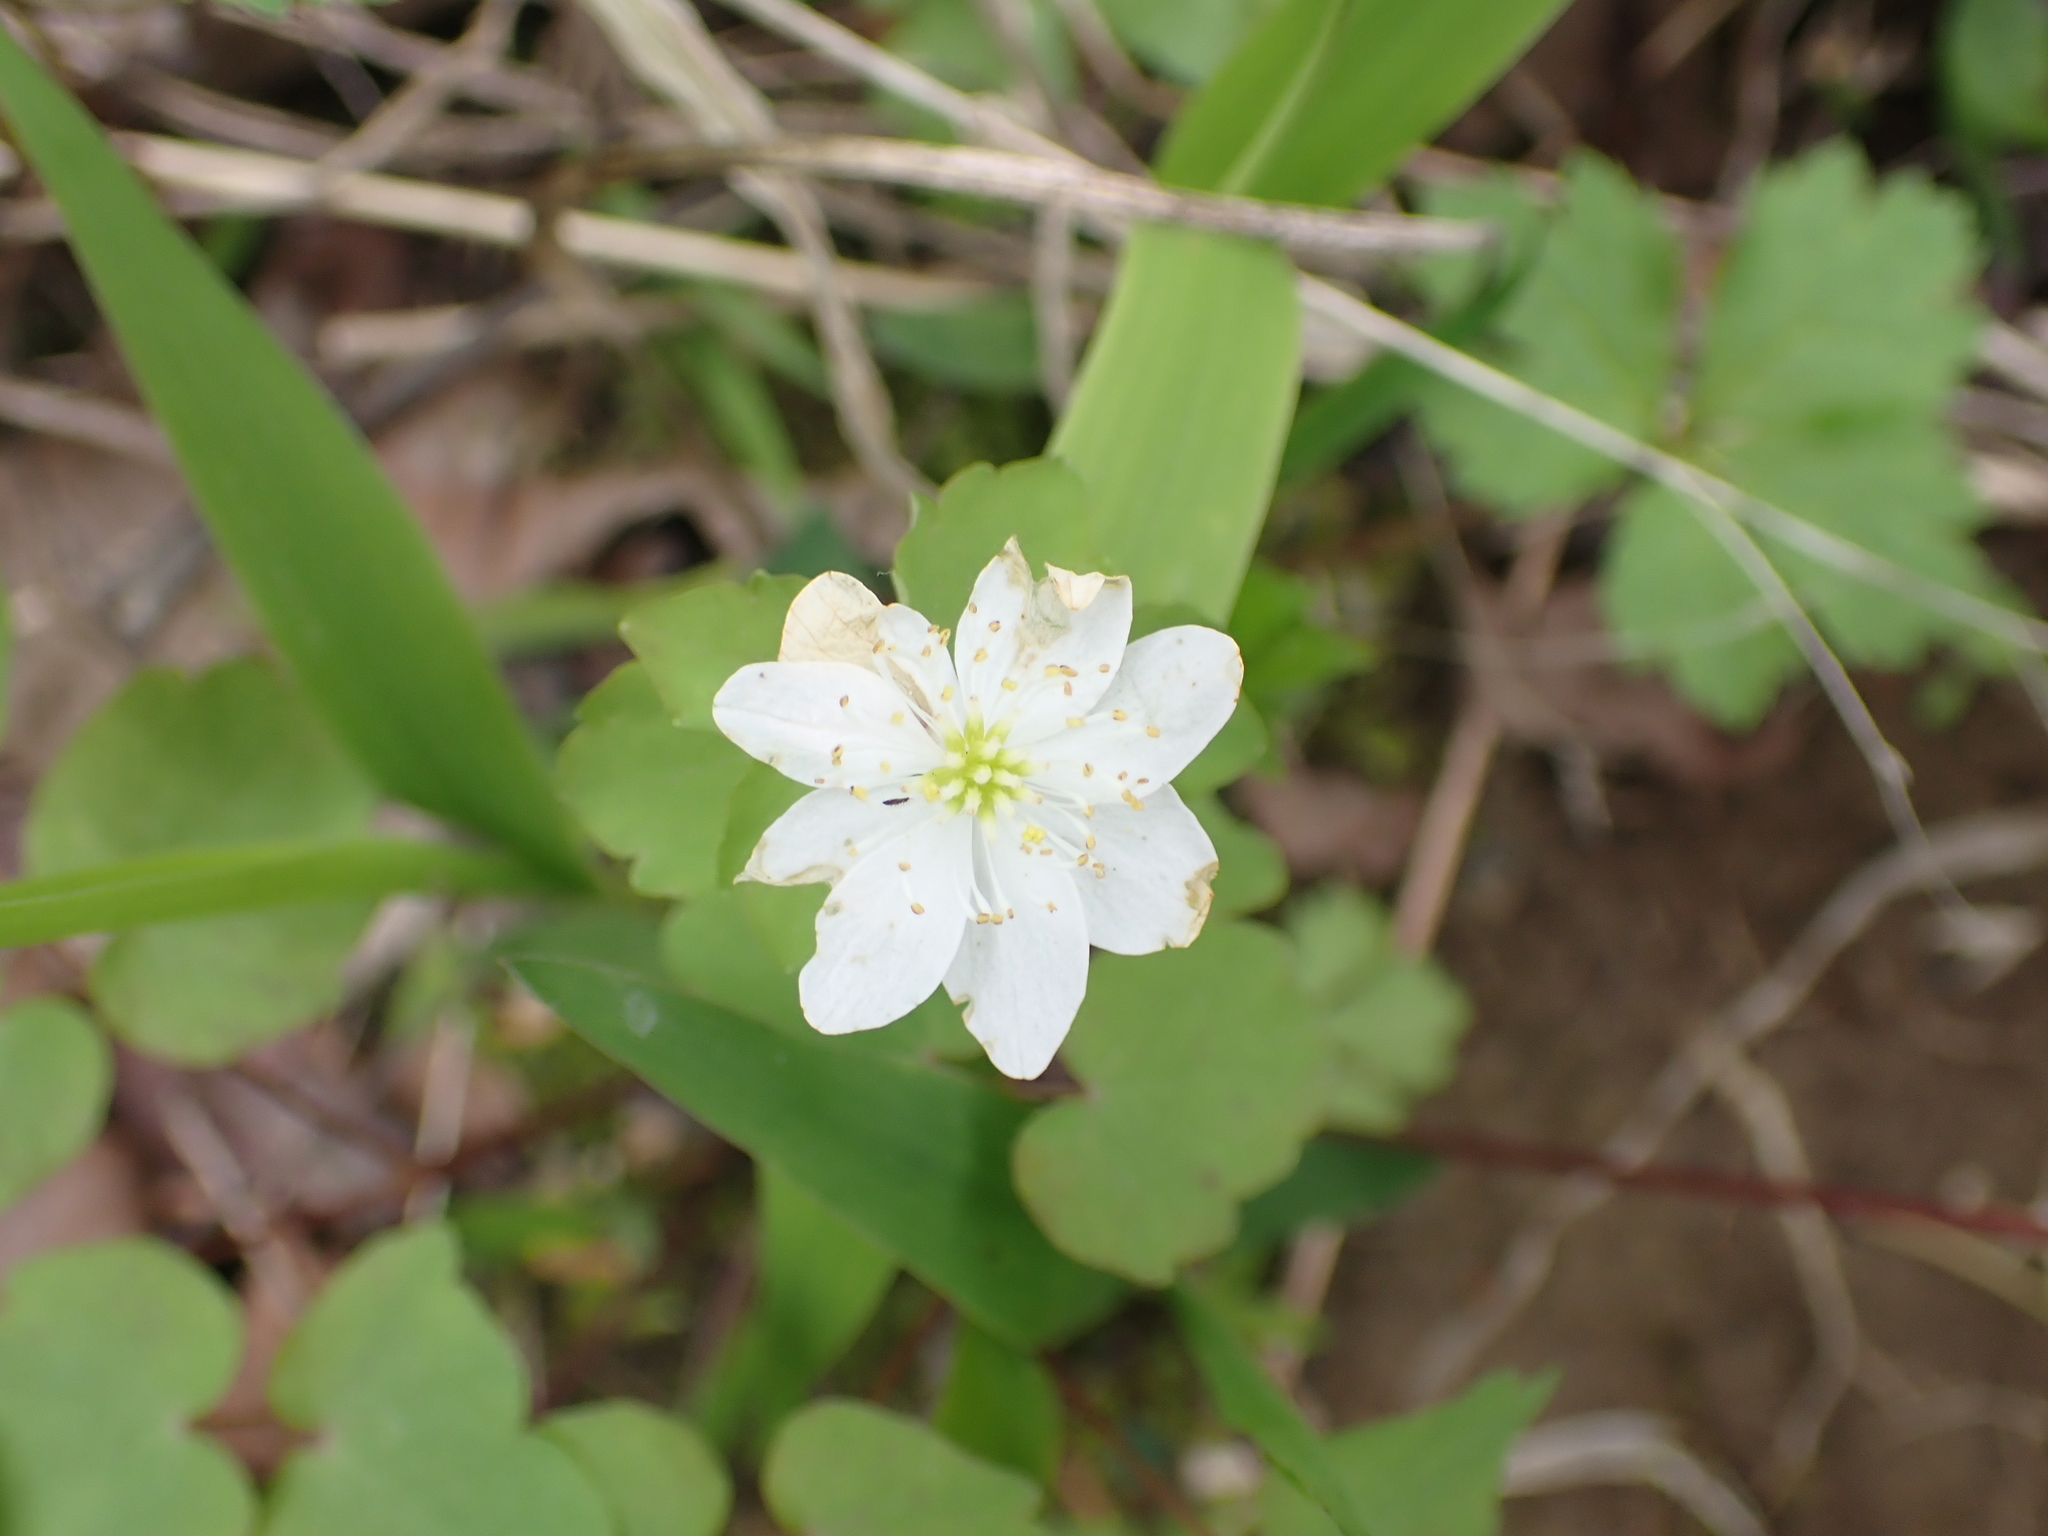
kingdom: Plantae
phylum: Tracheophyta
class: Magnoliopsida
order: Ranunculales
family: Ranunculaceae
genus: Thalictrum
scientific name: Thalictrum thalictroides
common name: Rue-anemone
